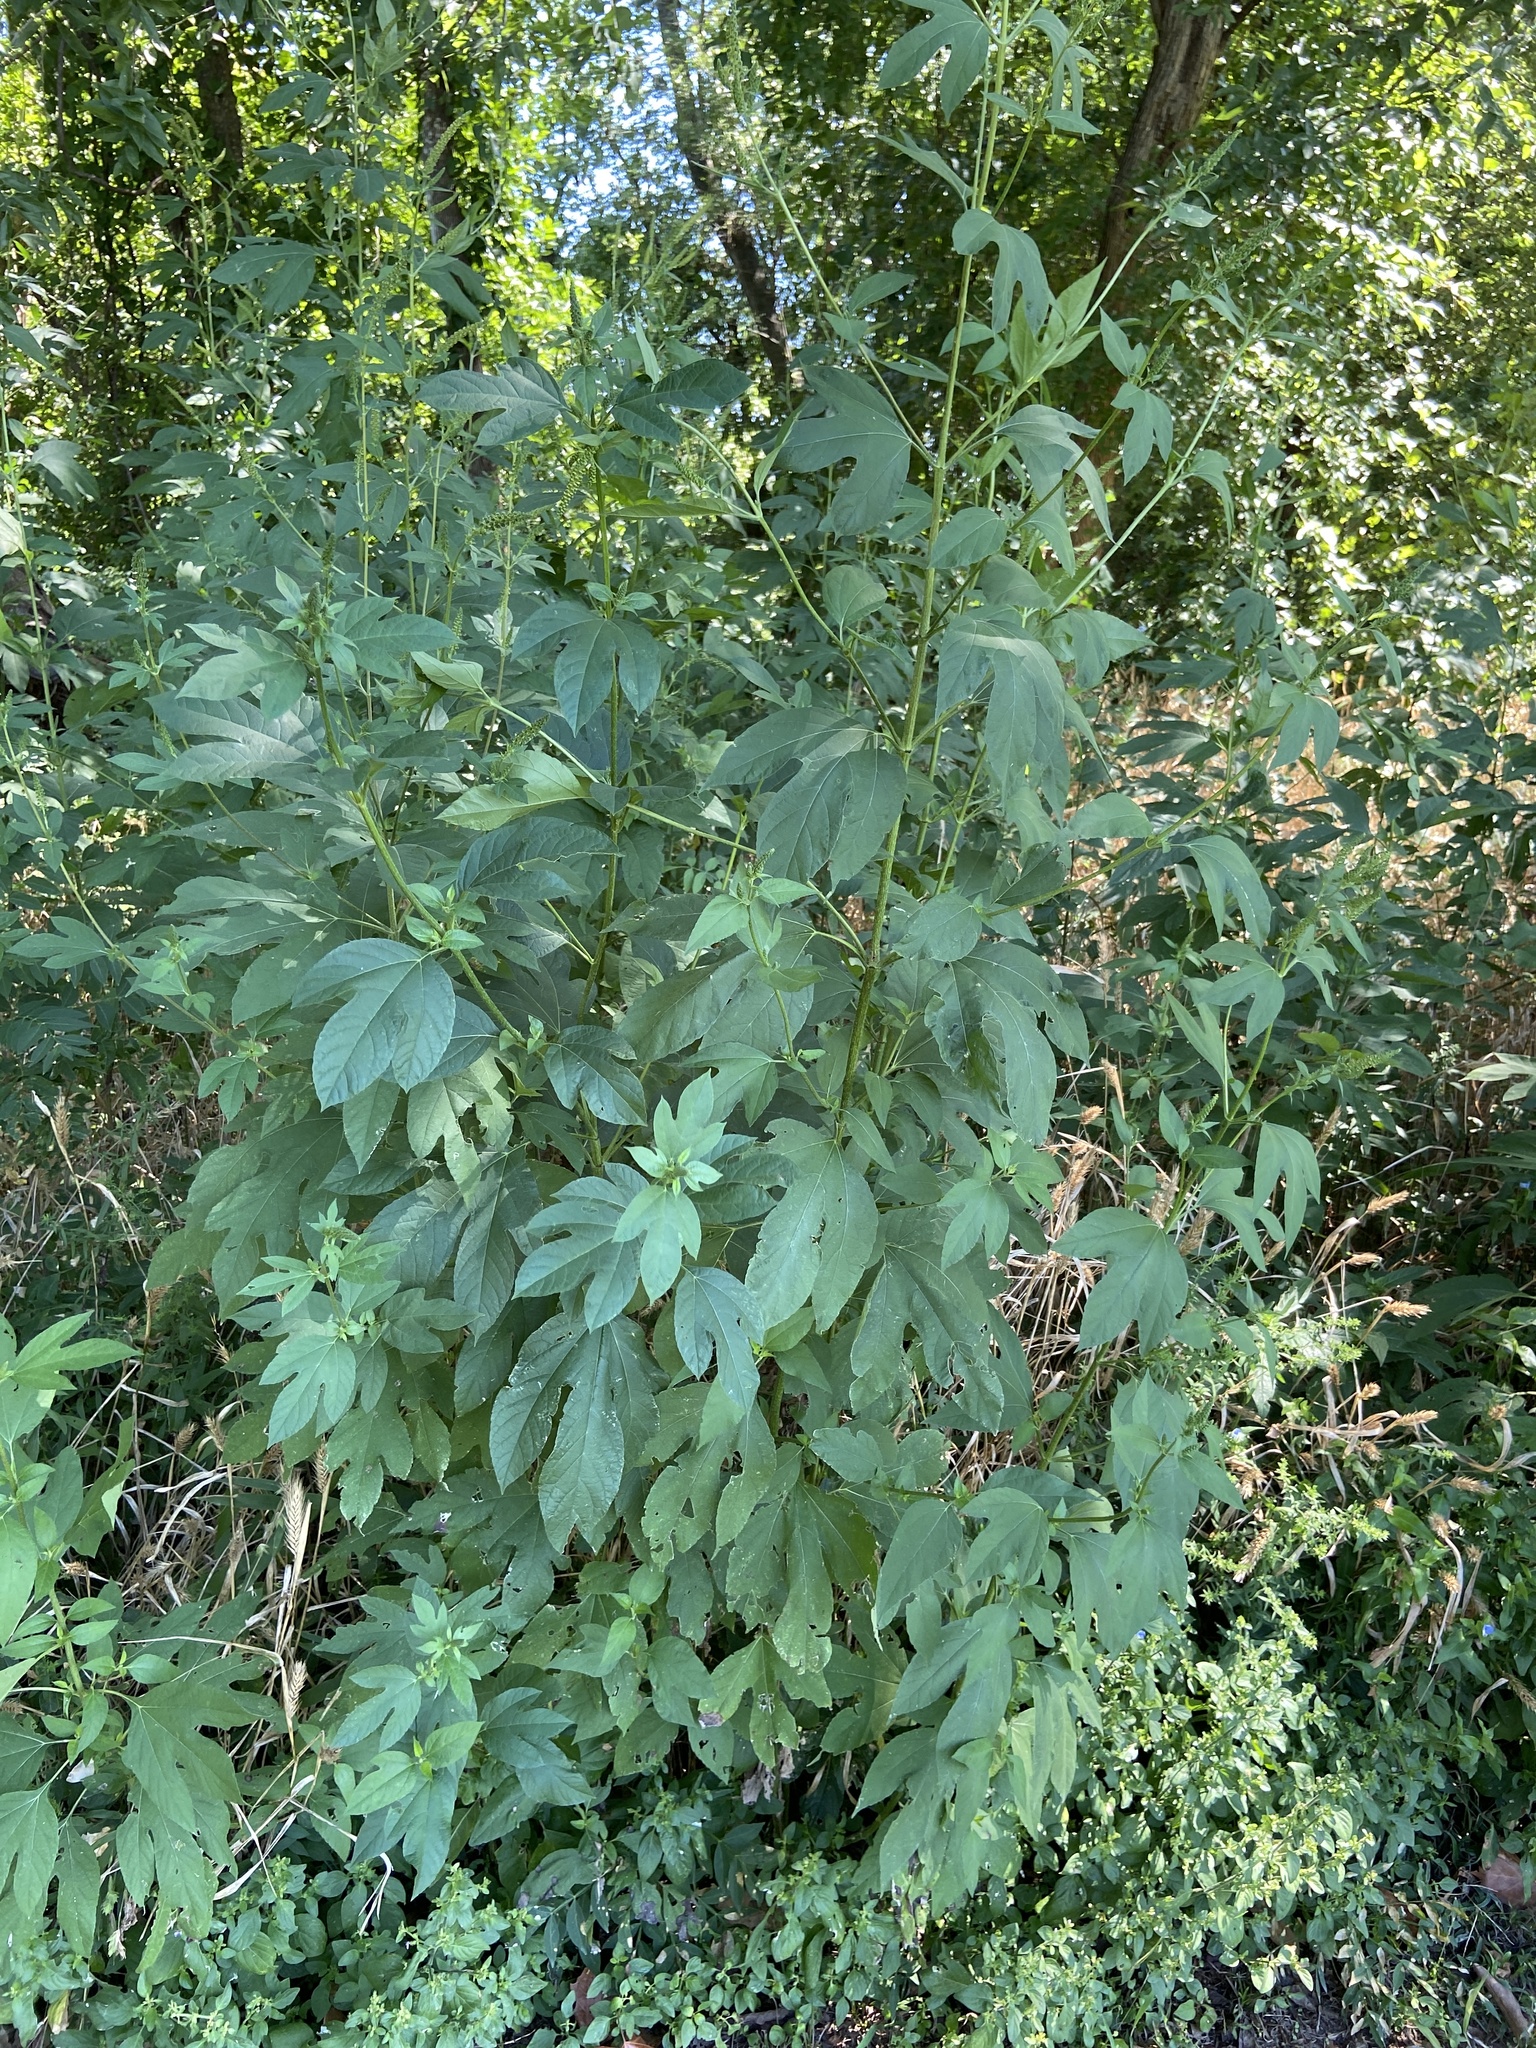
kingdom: Plantae
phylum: Tracheophyta
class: Magnoliopsida
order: Asterales
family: Asteraceae
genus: Ambrosia
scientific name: Ambrosia trifida
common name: Giant ragweed
